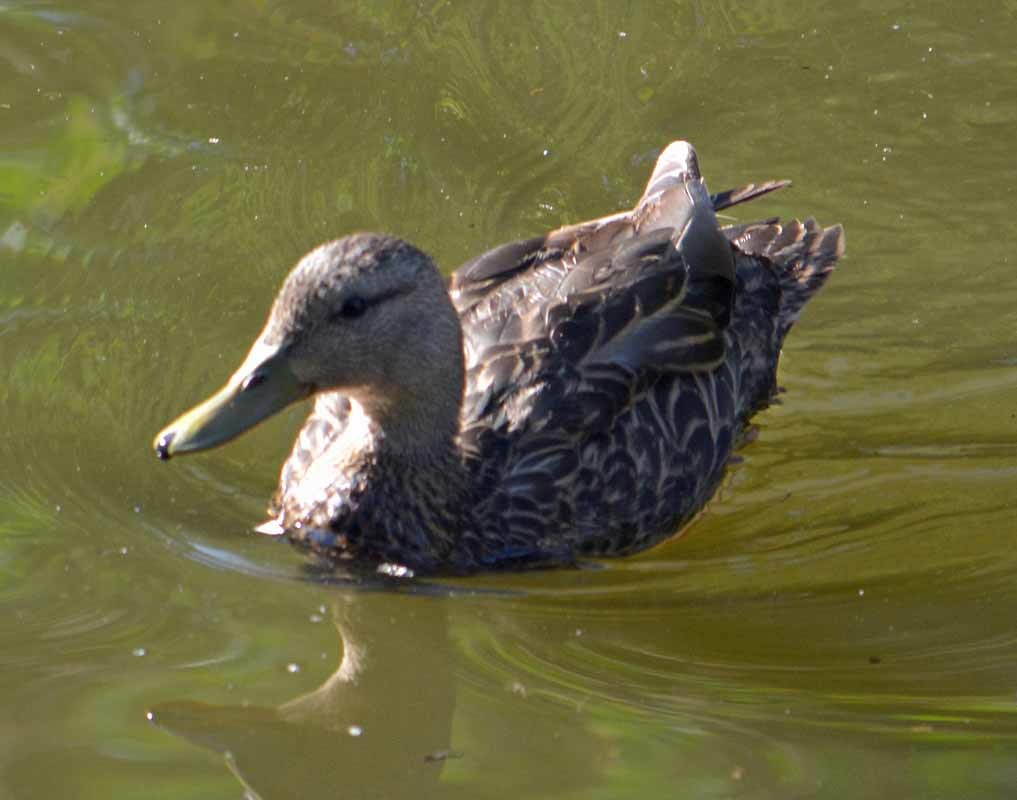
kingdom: Animalia
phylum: Chordata
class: Aves
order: Anseriformes
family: Anatidae
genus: Anas
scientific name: Anas diazi
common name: Mexican duck
